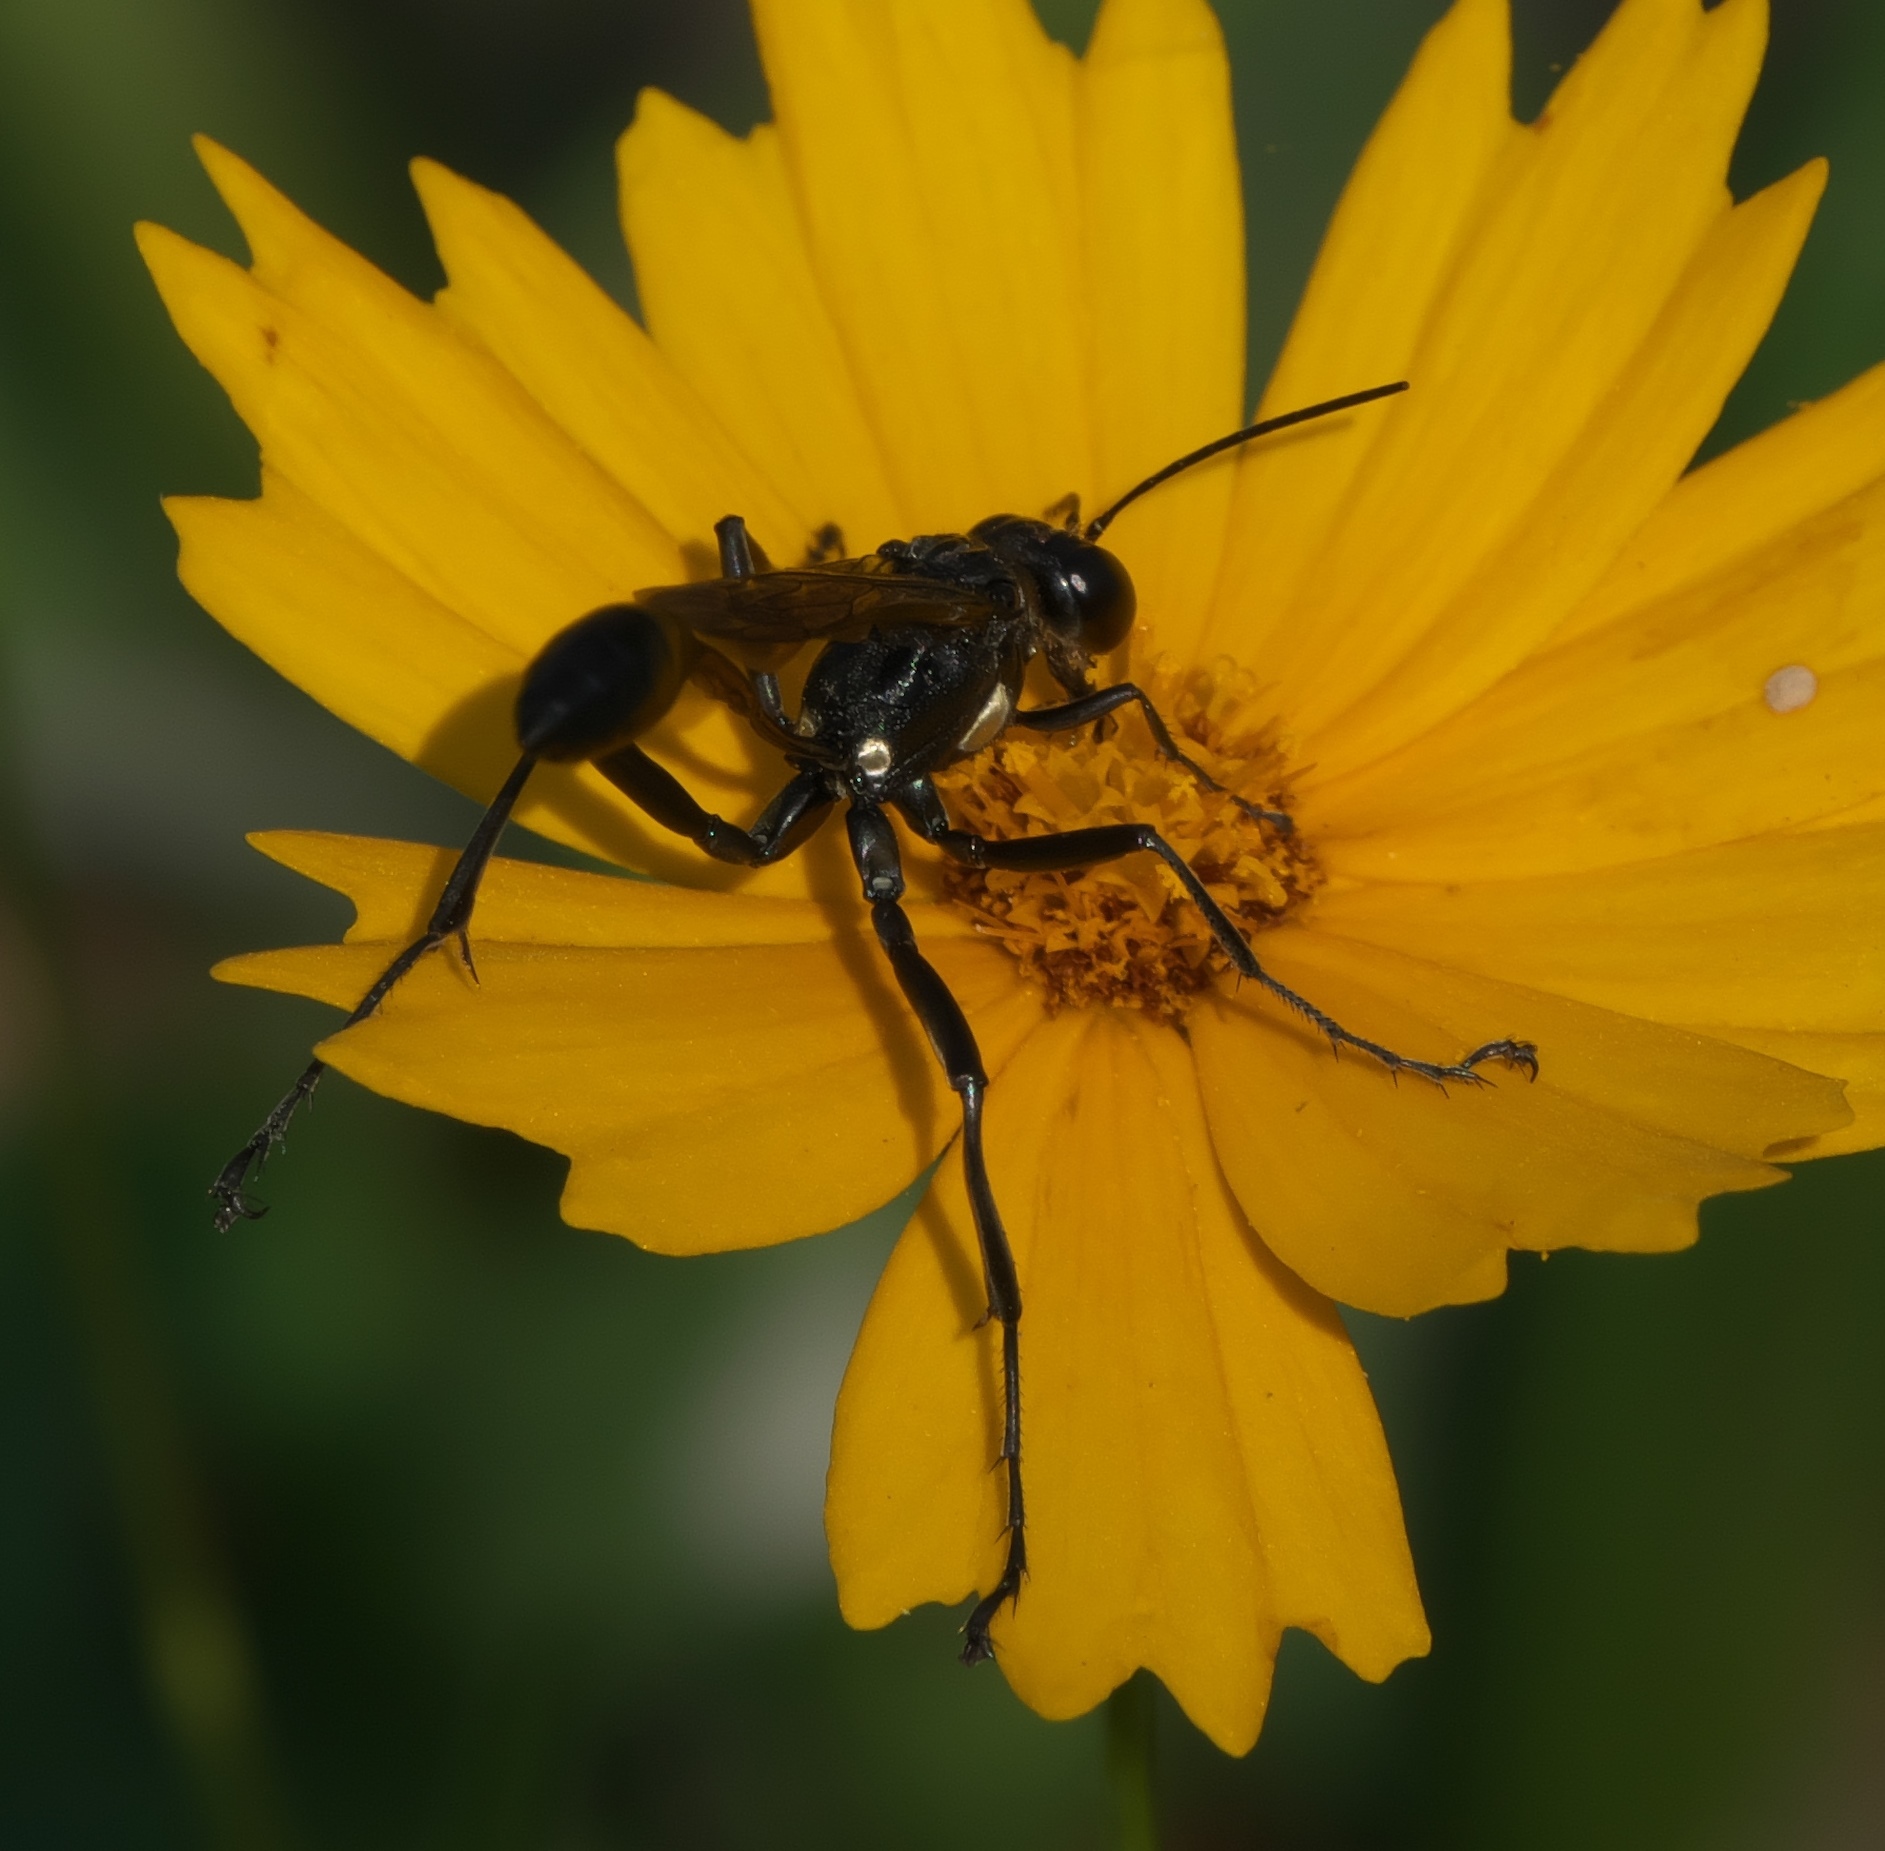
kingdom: Animalia
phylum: Arthropoda
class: Insecta
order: Hymenoptera
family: Sphecidae
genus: Eremnophila
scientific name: Eremnophila aureonotata
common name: Gold-marked thread-waisted wasp
